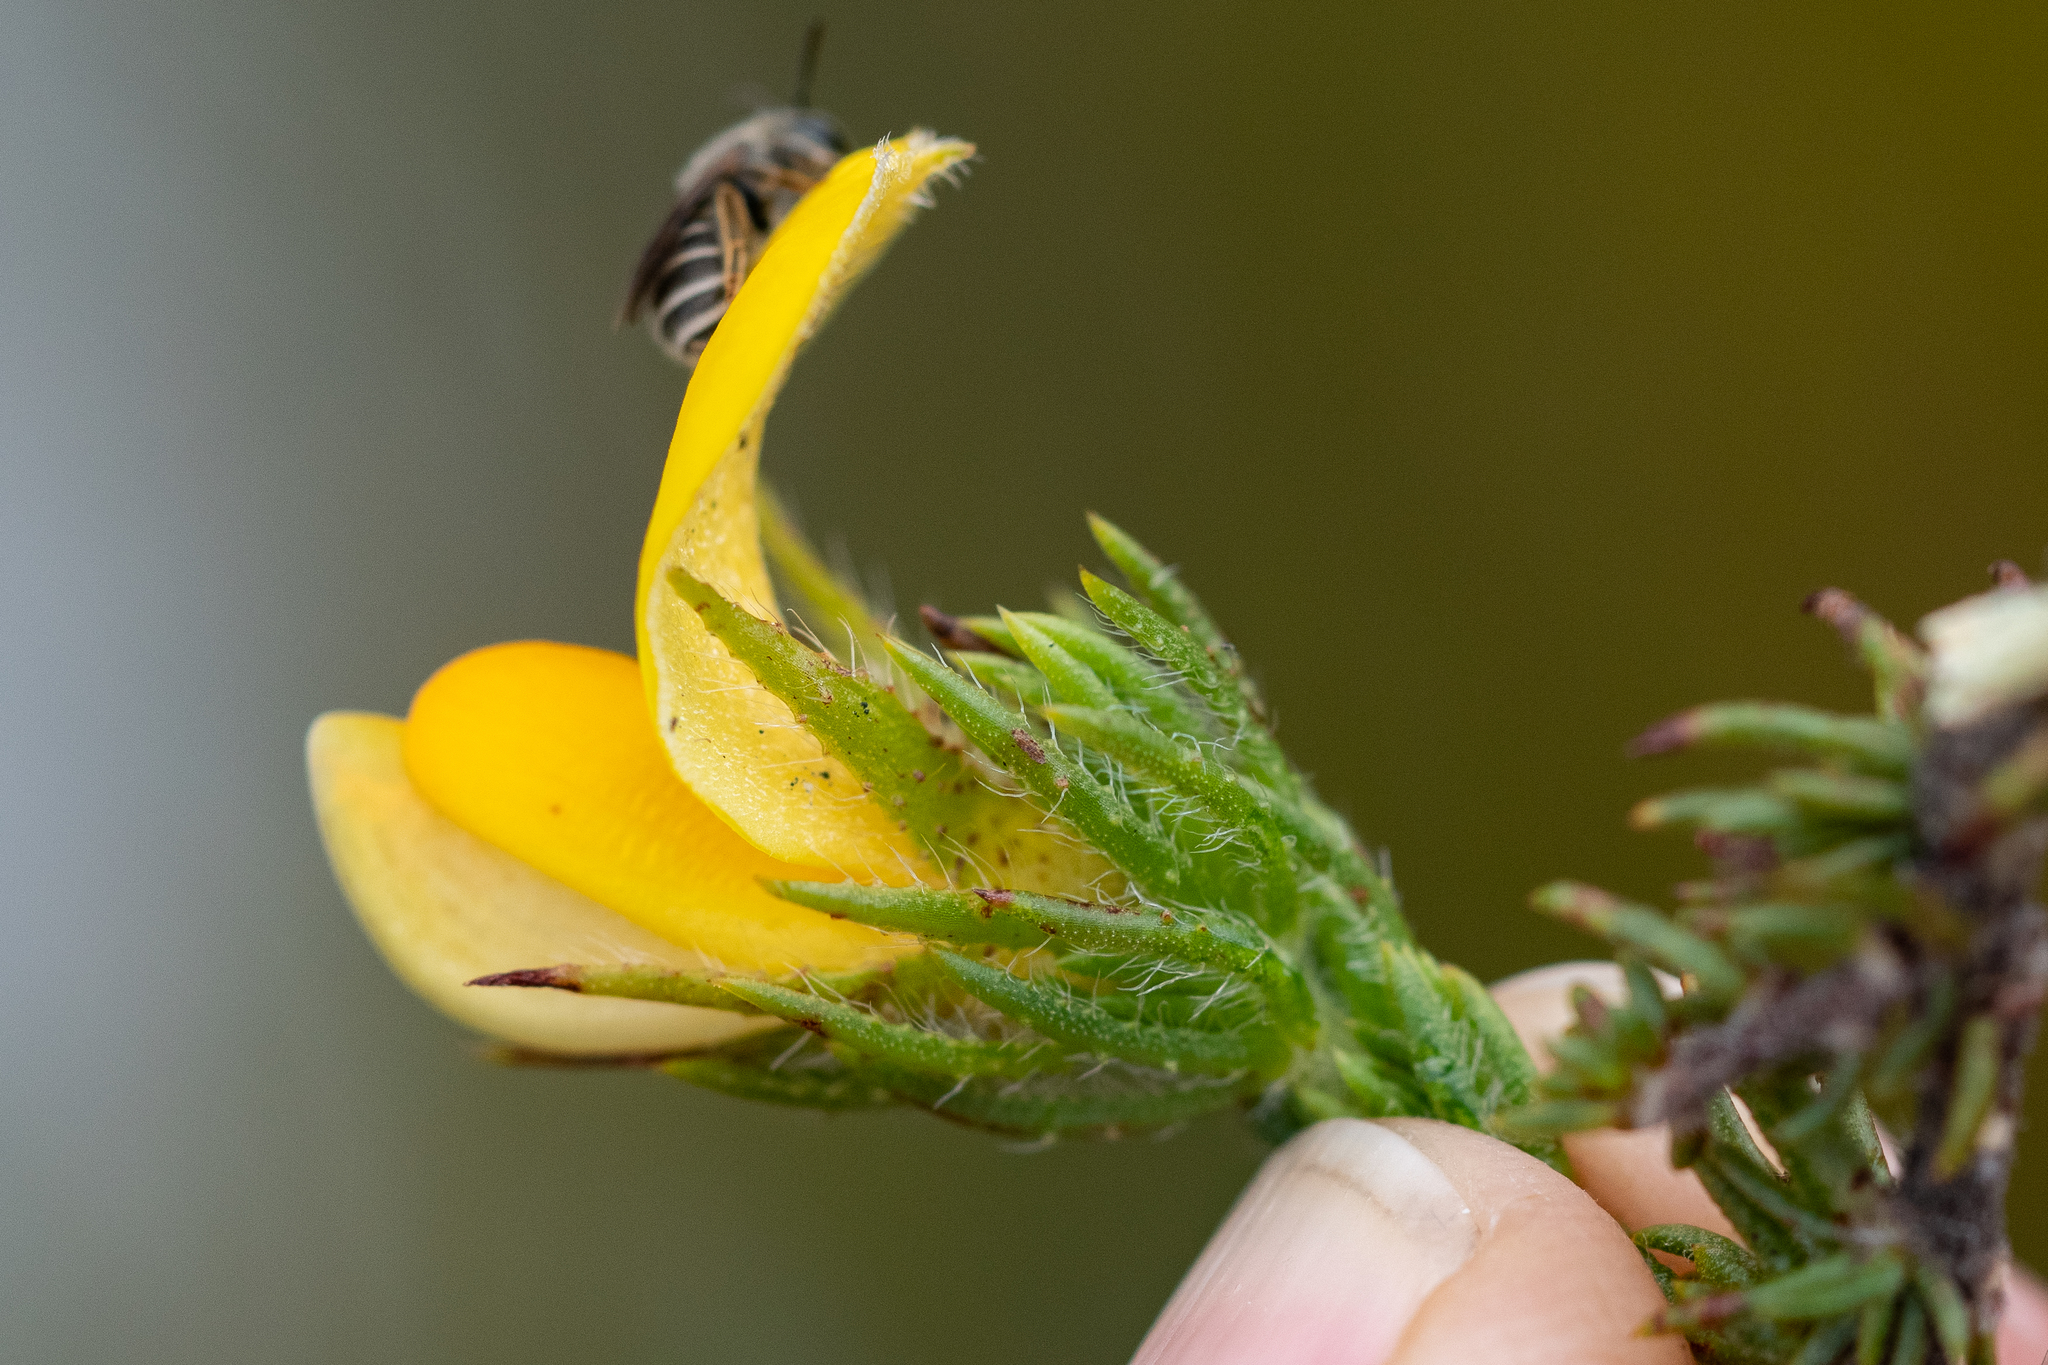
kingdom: Plantae
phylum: Tracheophyta
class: Magnoliopsida
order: Fabales
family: Fabaceae
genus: Aspalathus
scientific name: Aspalathus ciliaris
